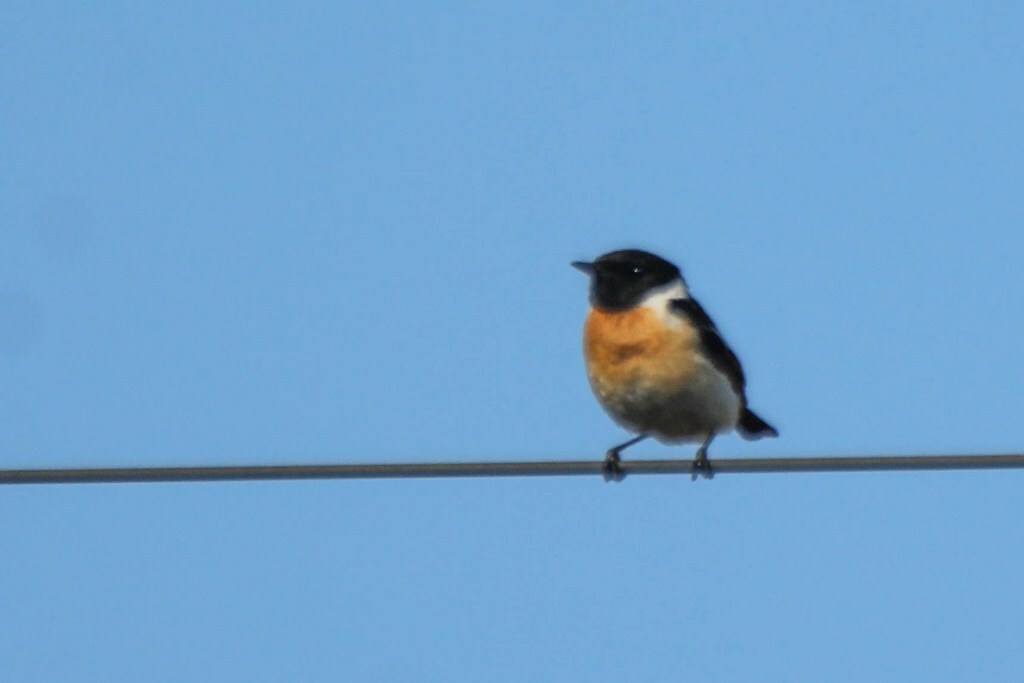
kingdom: Animalia
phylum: Chordata
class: Aves
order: Passeriformes
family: Muscicapidae
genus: Saxicola
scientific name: Saxicola stejnegeri
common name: Stejneger's stonechat
